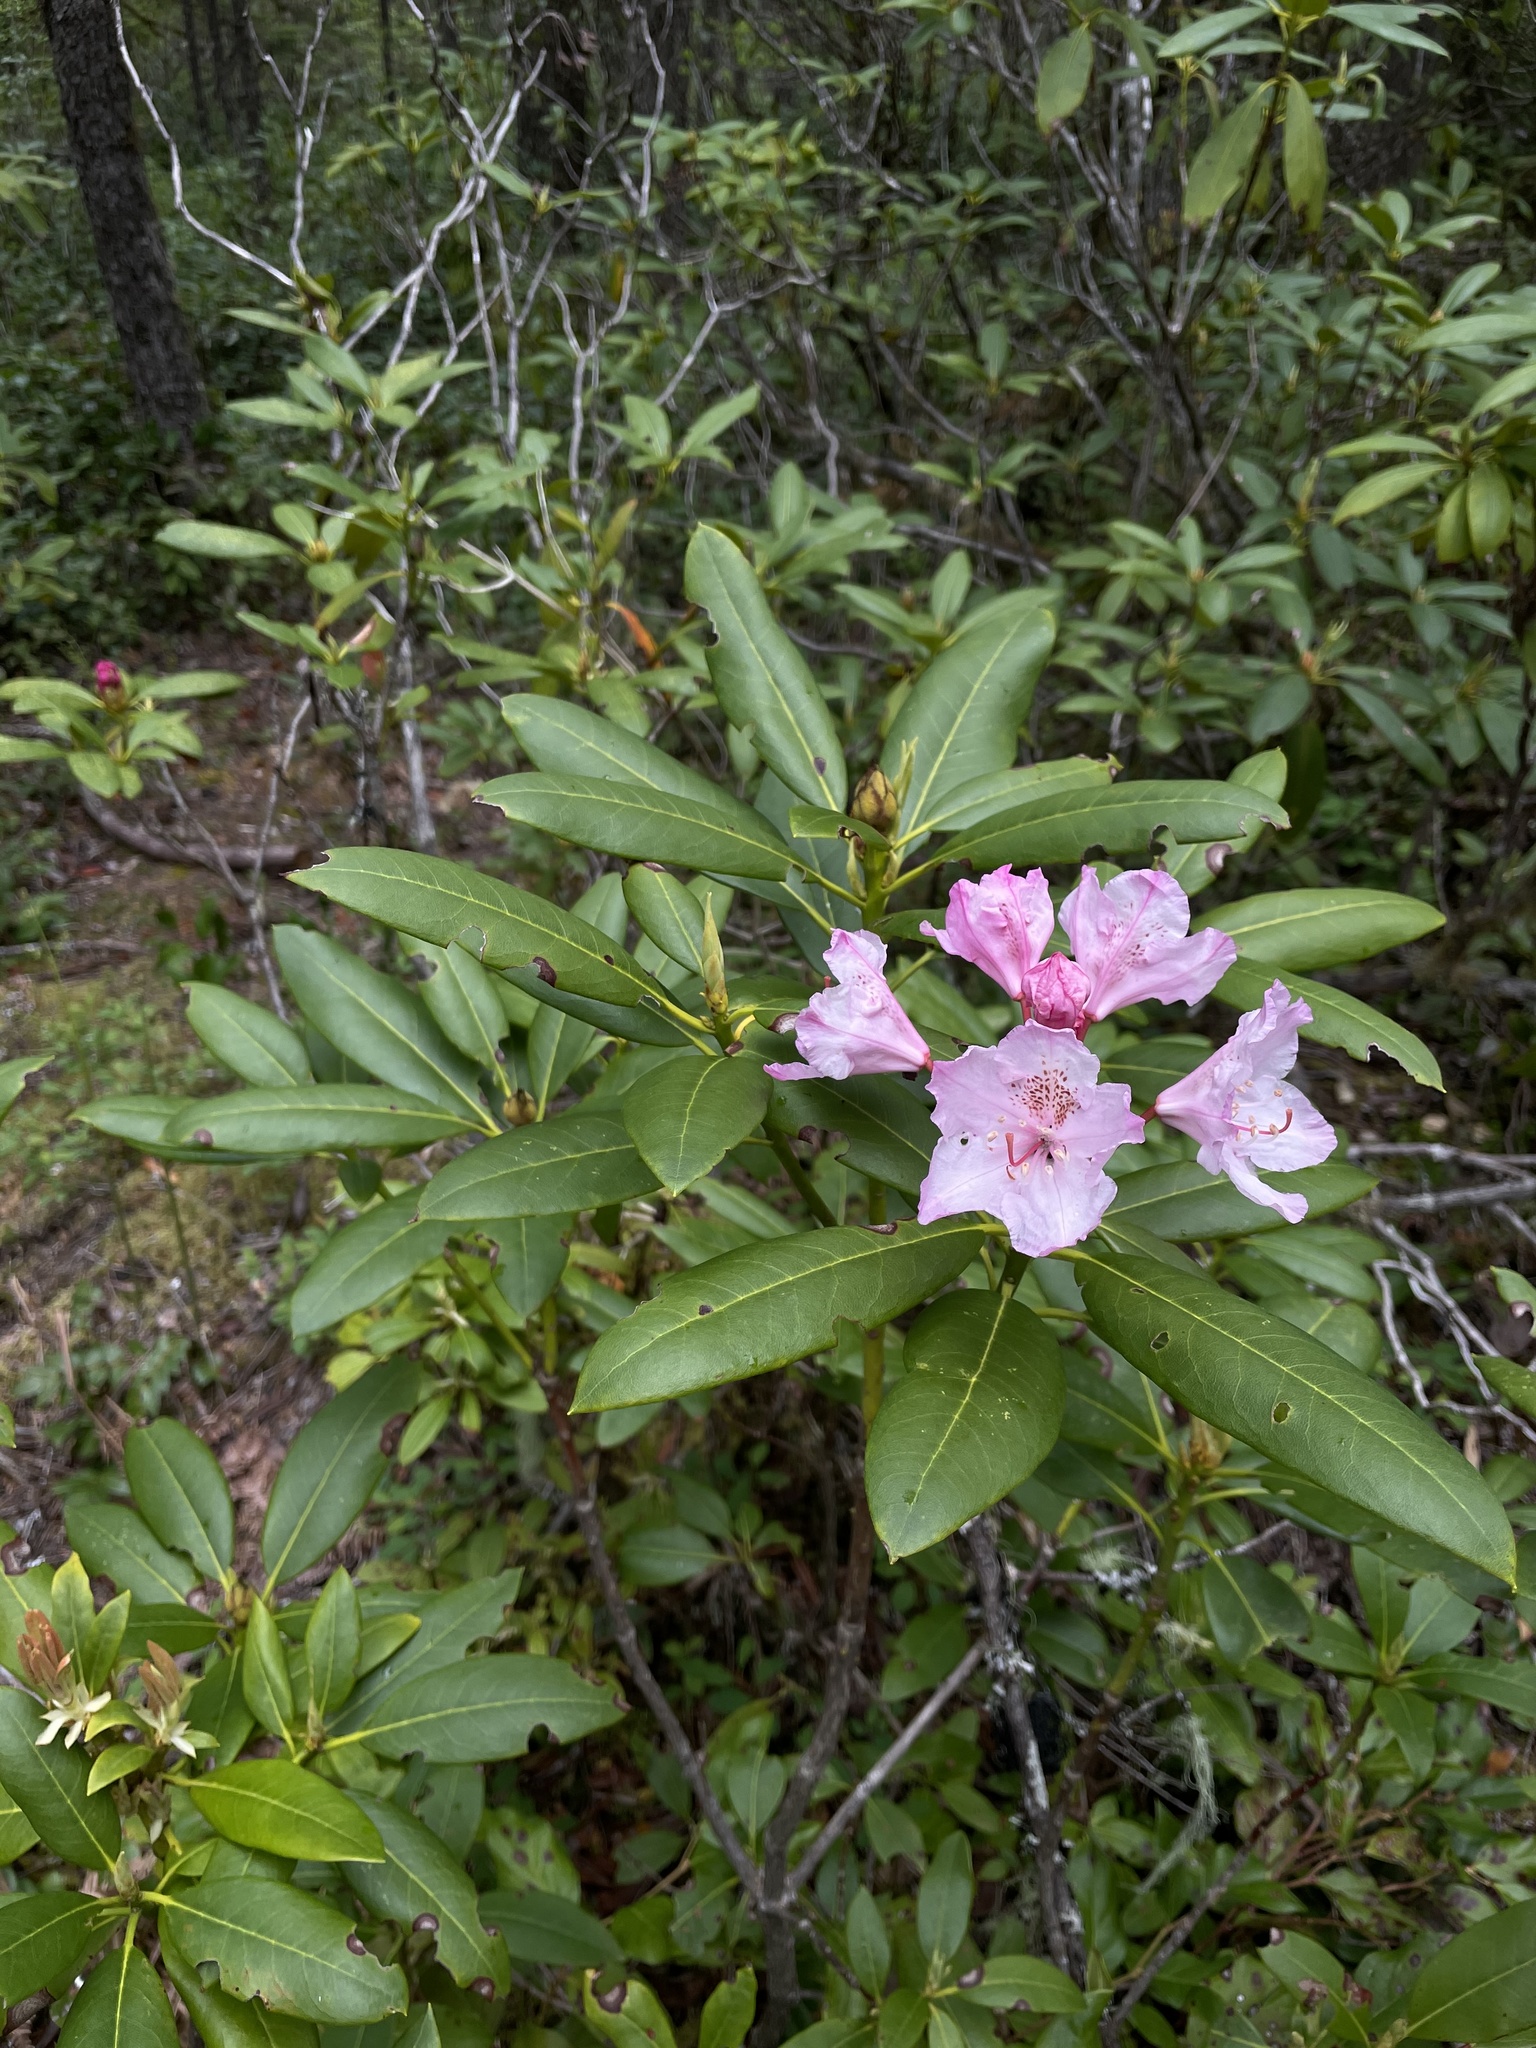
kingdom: Plantae
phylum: Tracheophyta
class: Magnoliopsida
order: Ericales
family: Ericaceae
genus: Rhododendron
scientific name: Rhododendron macrophyllum
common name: California rose bay
